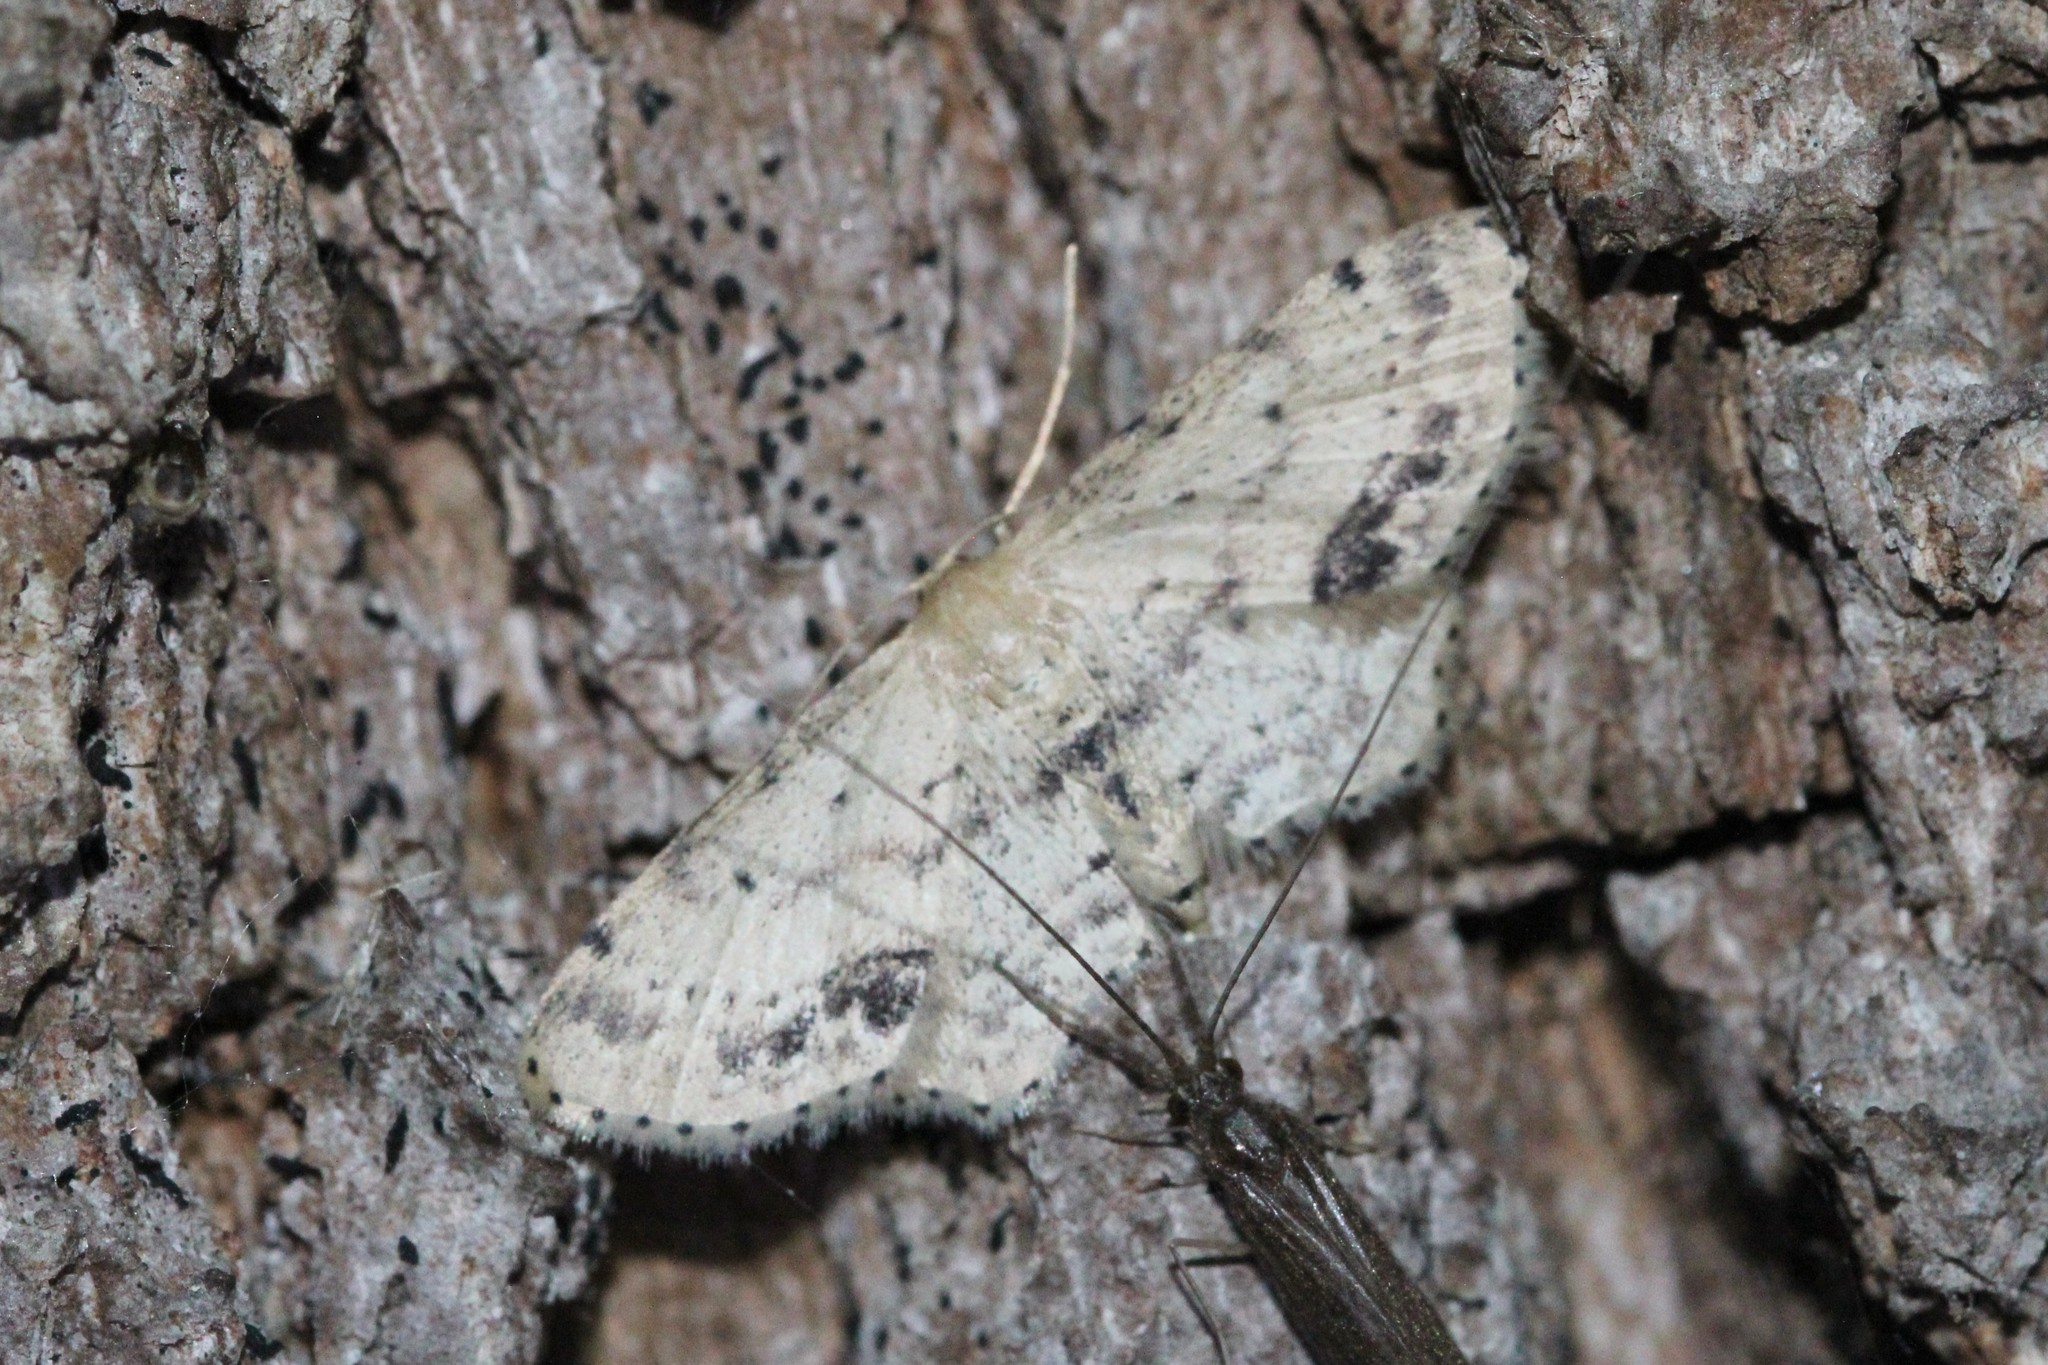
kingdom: Animalia
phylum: Arthropoda
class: Insecta
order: Lepidoptera
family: Geometridae
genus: Idaea
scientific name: Idaea dimidiata
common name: Single-dotted wave
